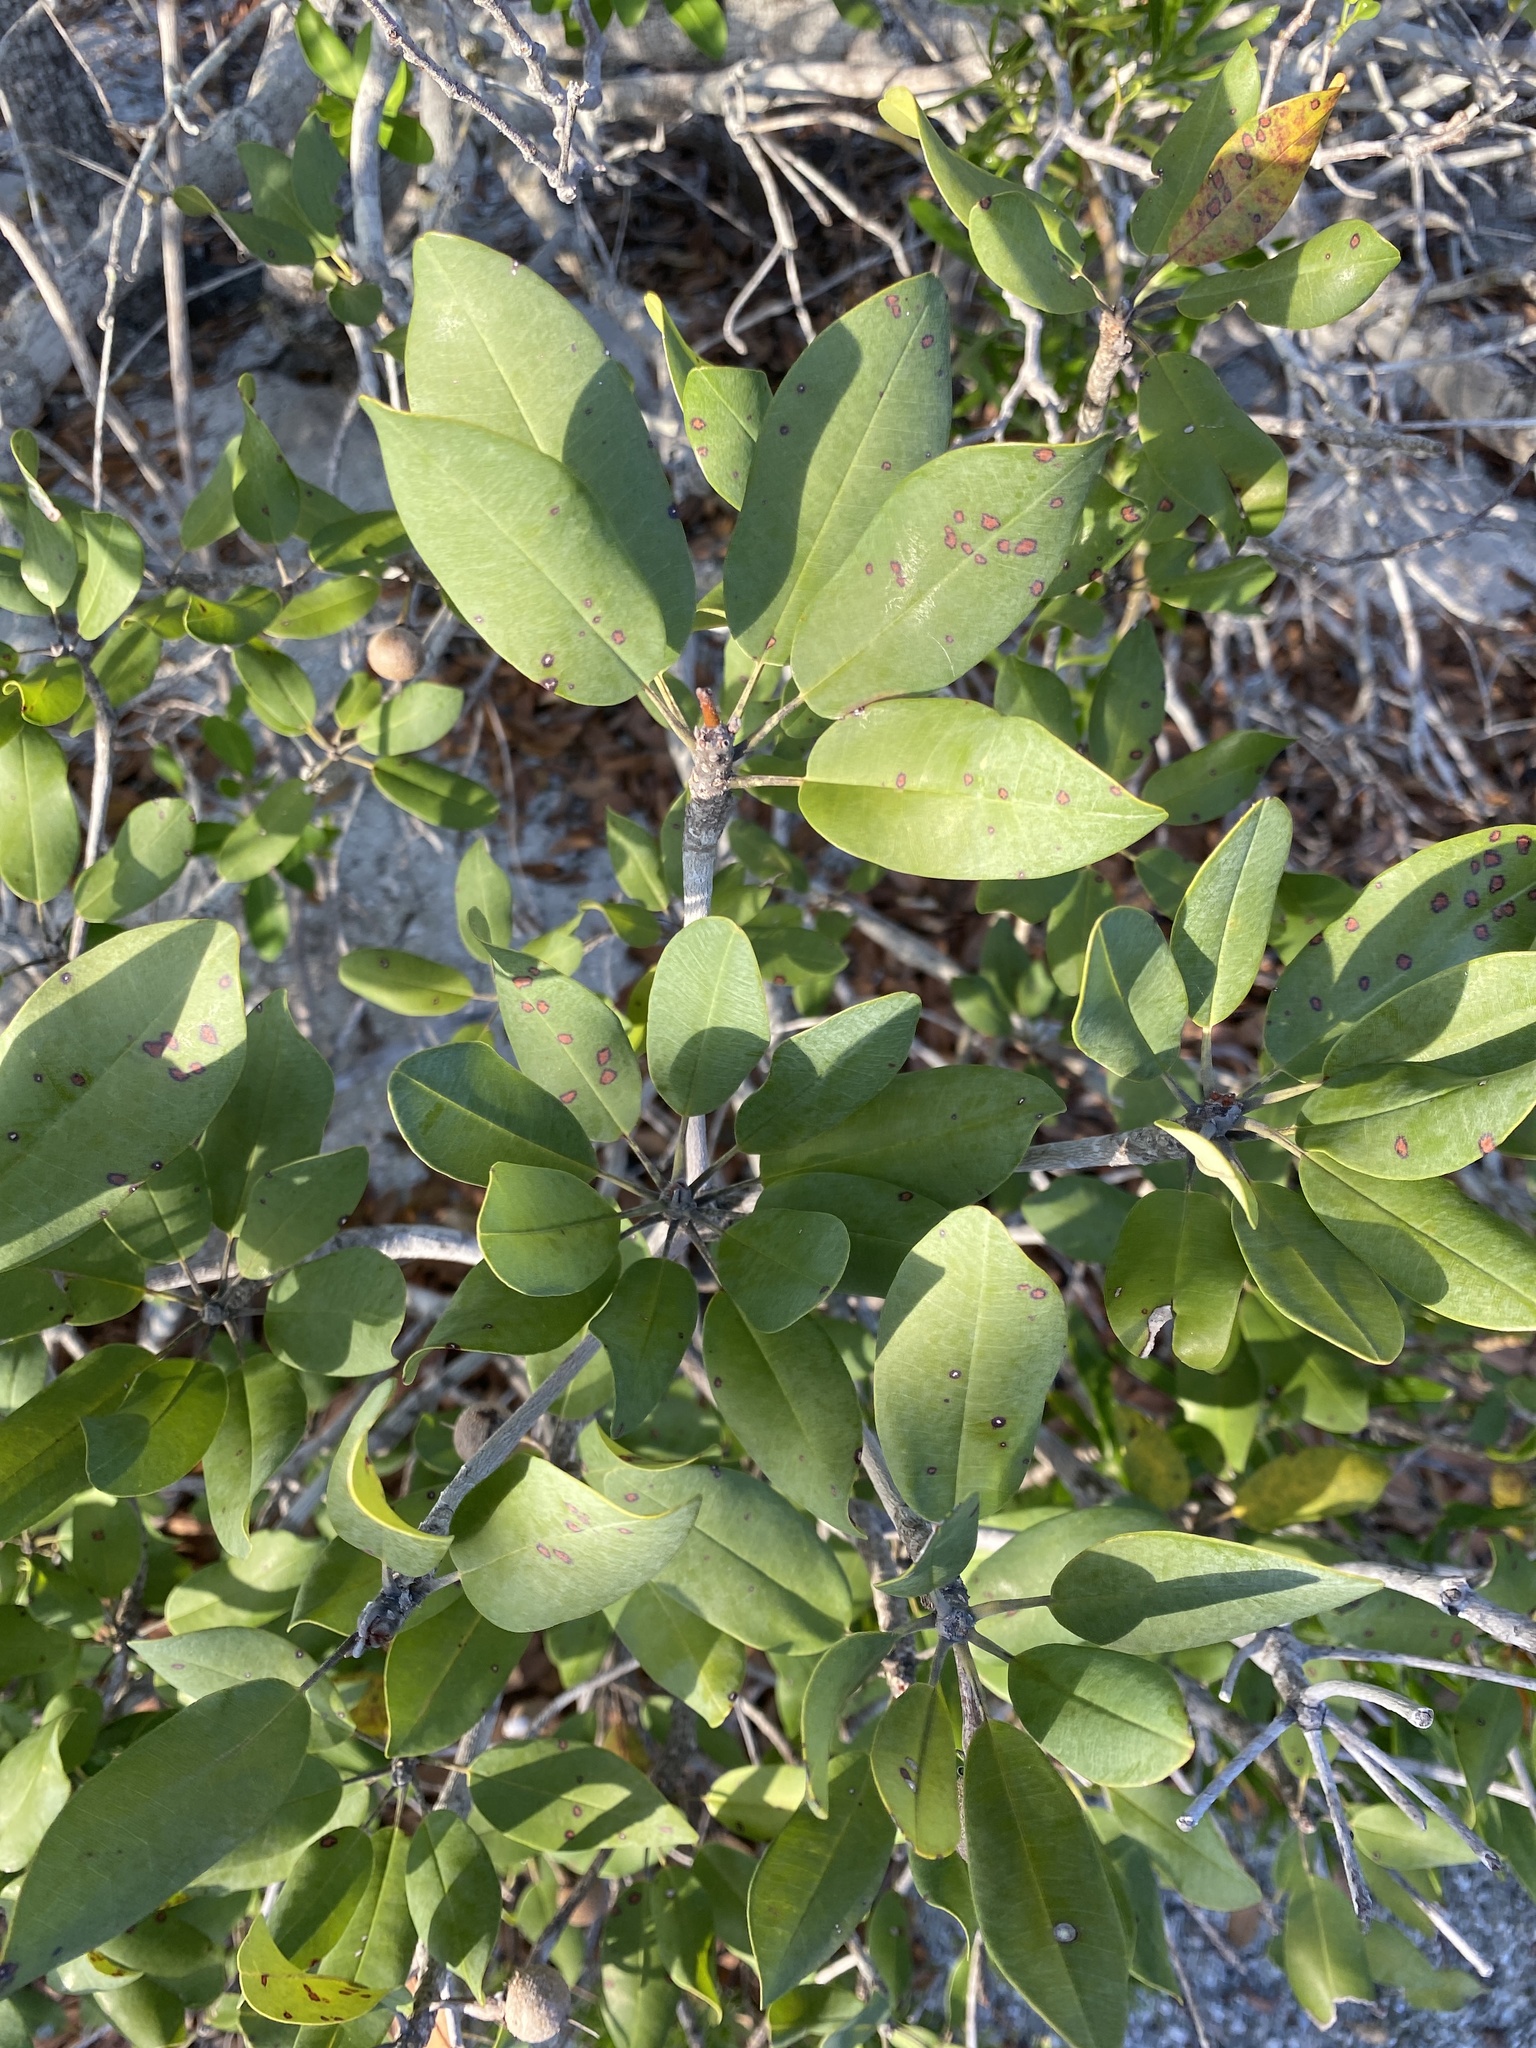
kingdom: Plantae
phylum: Tracheophyta
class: Magnoliopsida
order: Ericales
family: Sapotaceae
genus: Manilkara
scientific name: Manilkara jaimiqui
